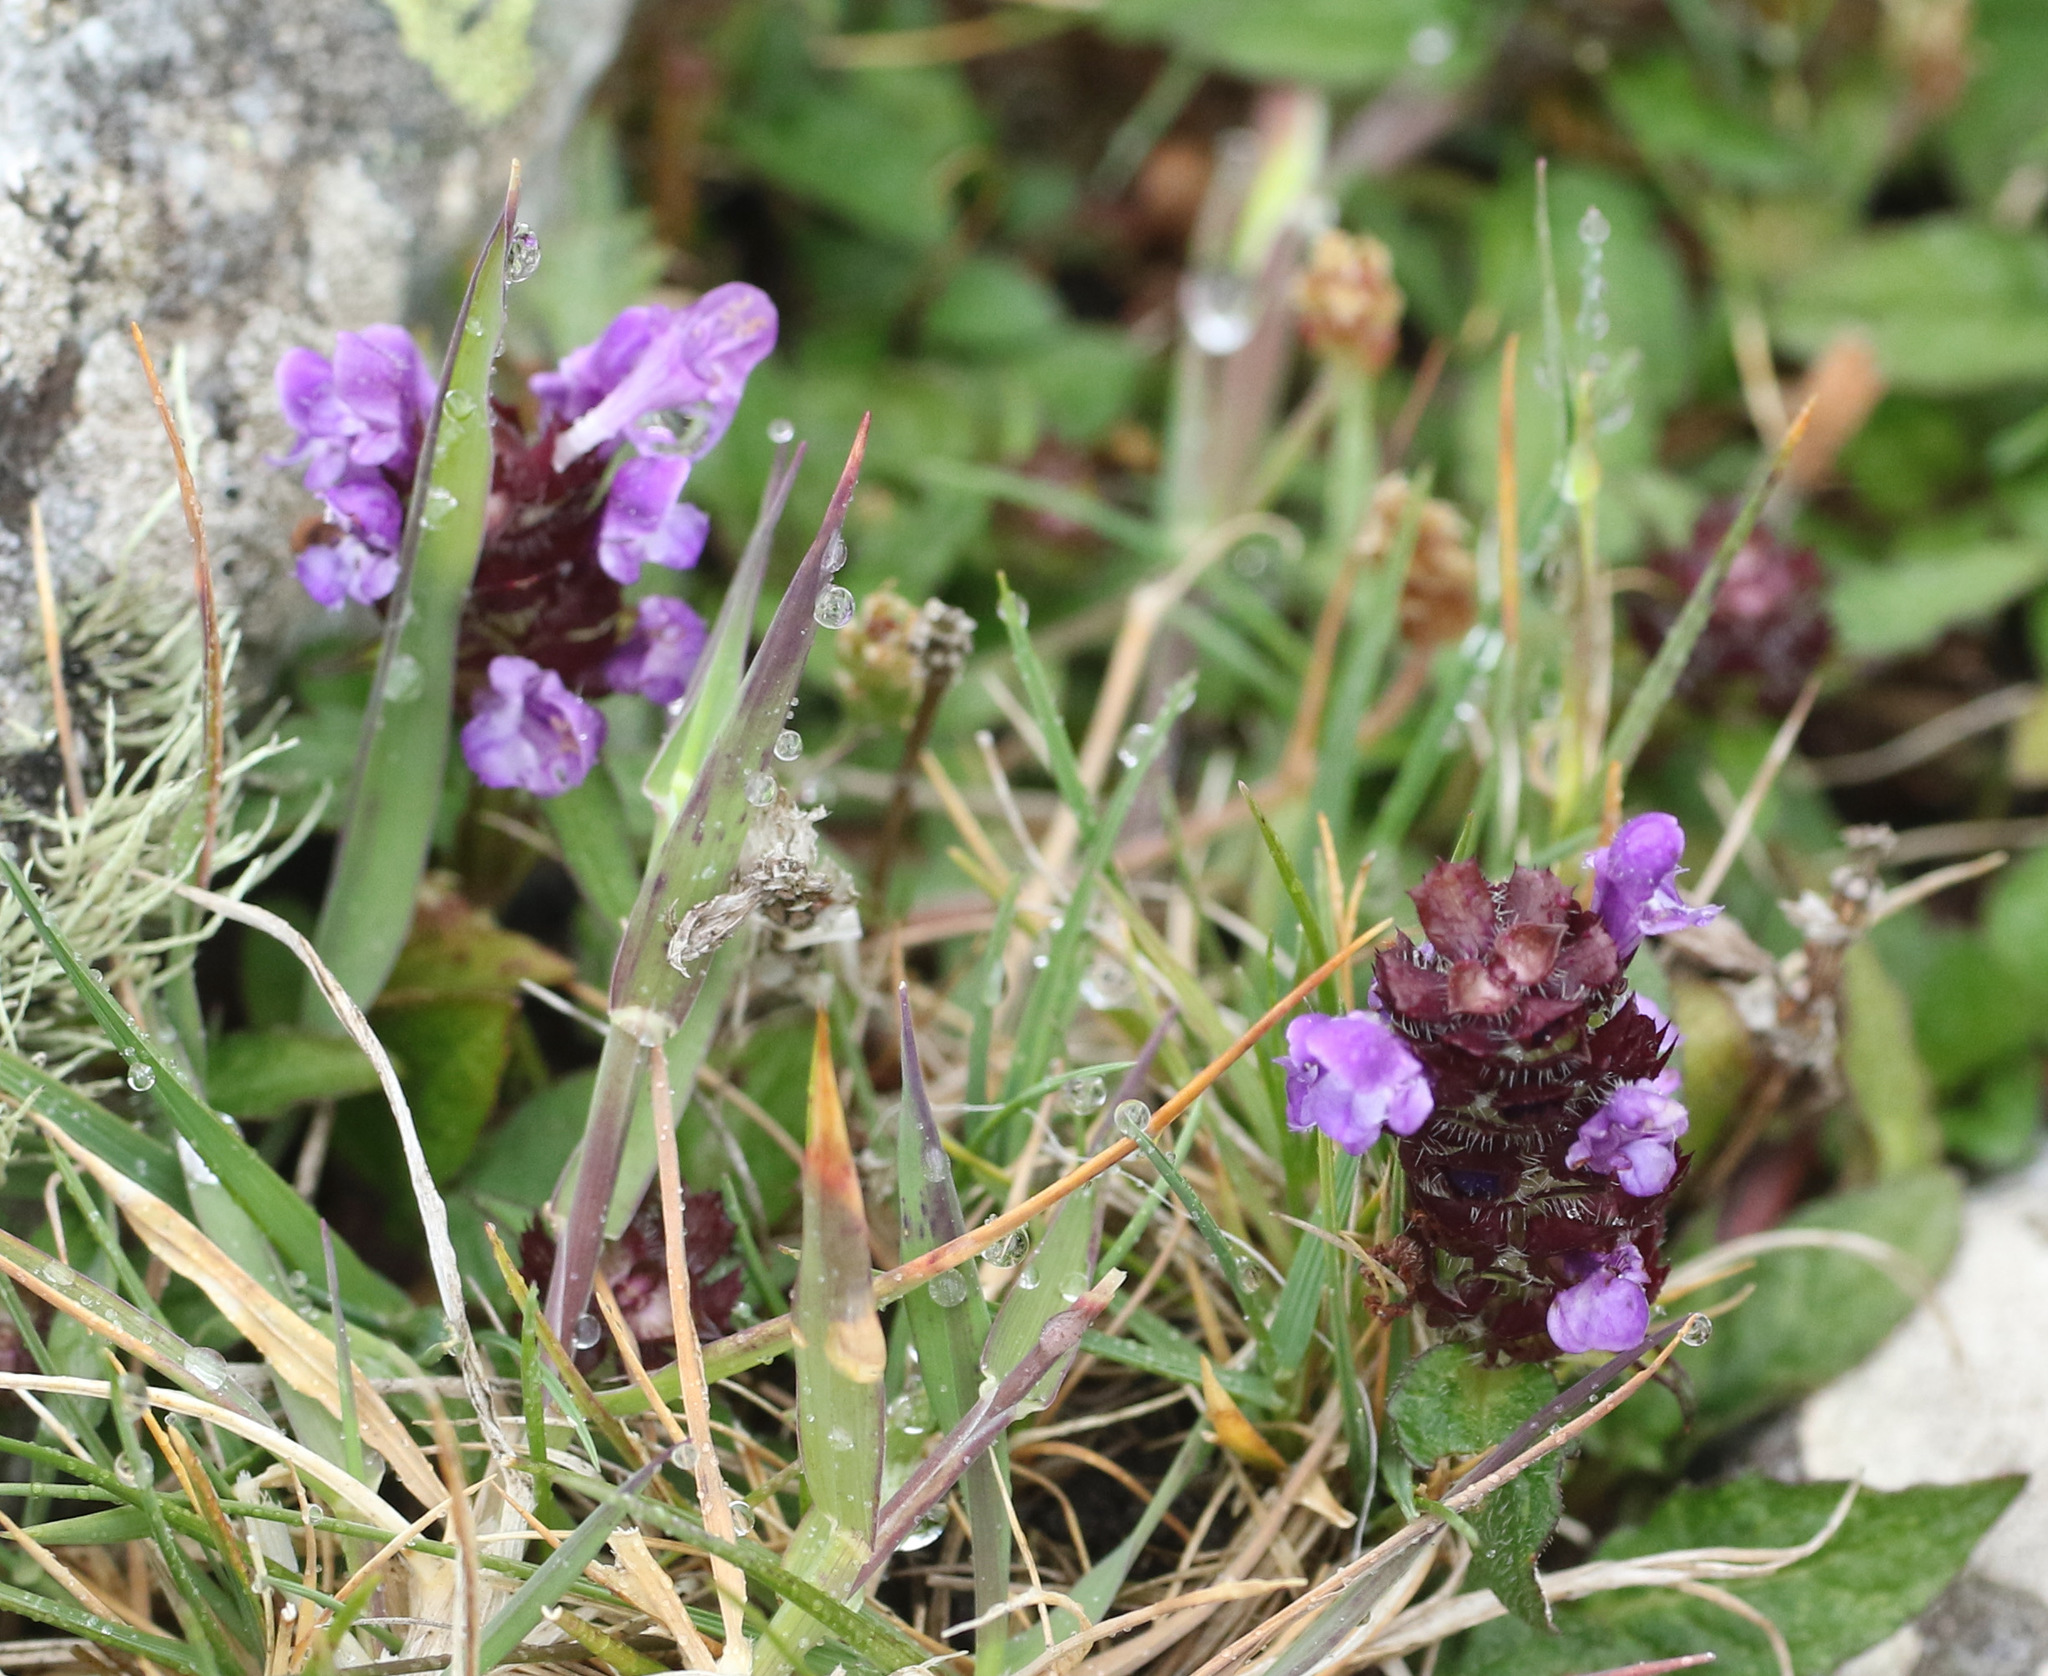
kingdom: Plantae
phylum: Tracheophyta
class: Magnoliopsida
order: Lamiales
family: Lamiaceae
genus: Prunella
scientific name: Prunella vulgaris
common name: Heal-all
